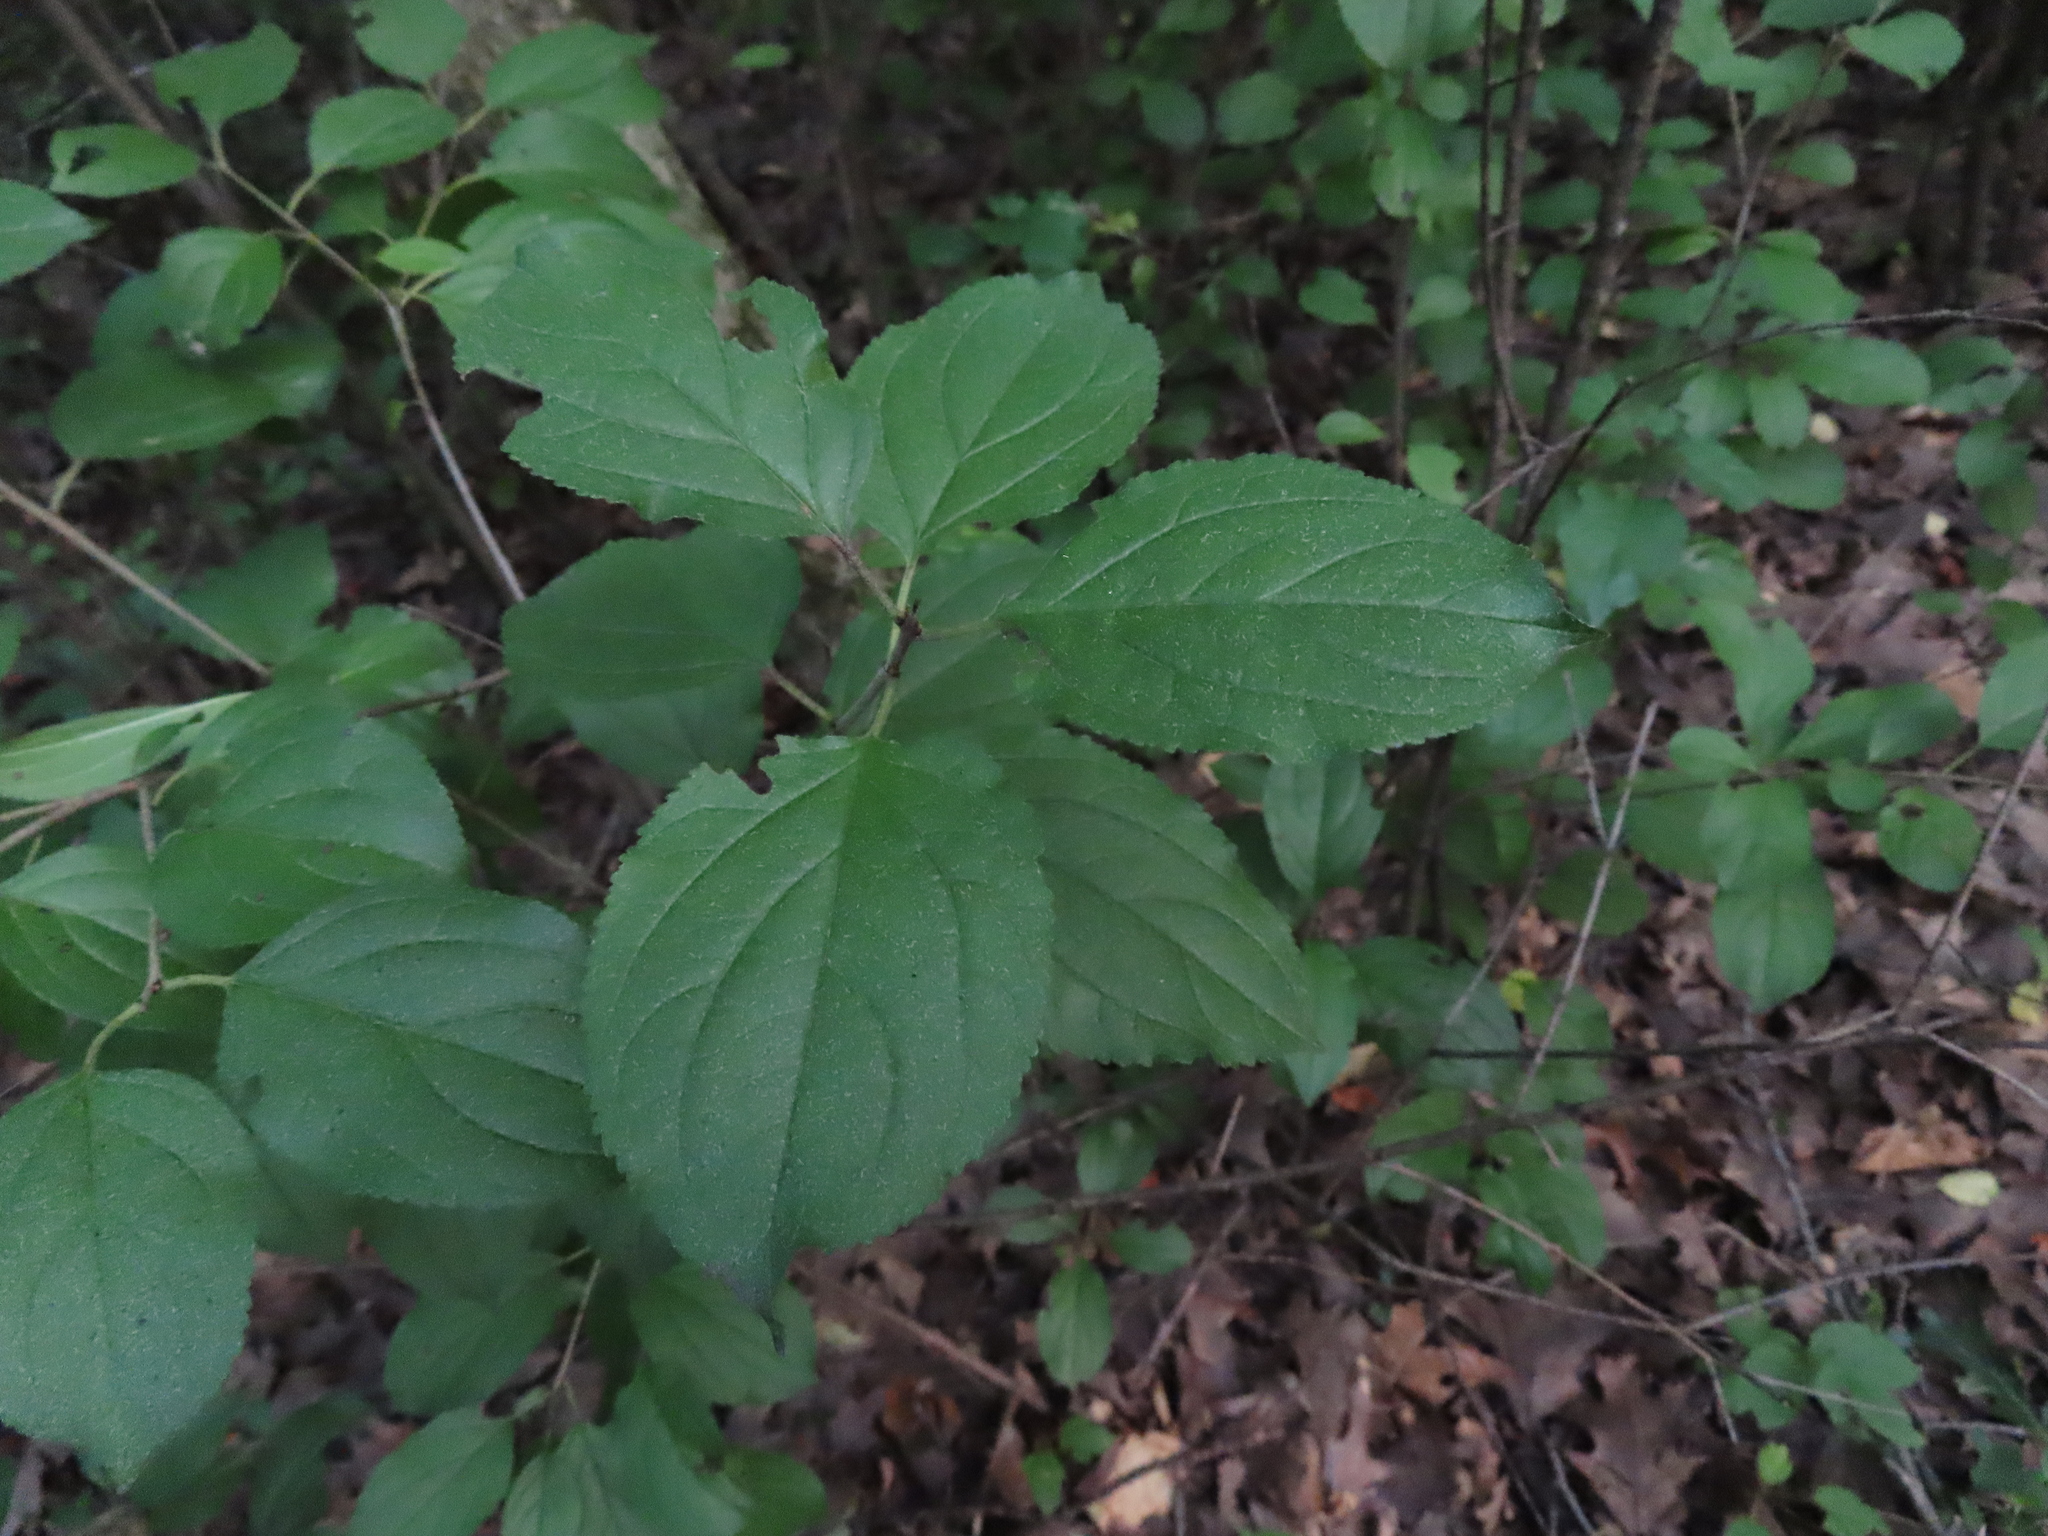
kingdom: Plantae
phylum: Tracheophyta
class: Magnoliopsida
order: Rosales
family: Rhamnaceae
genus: Rhamnus
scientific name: Rhamnus cathartica
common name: Common buckthorn
